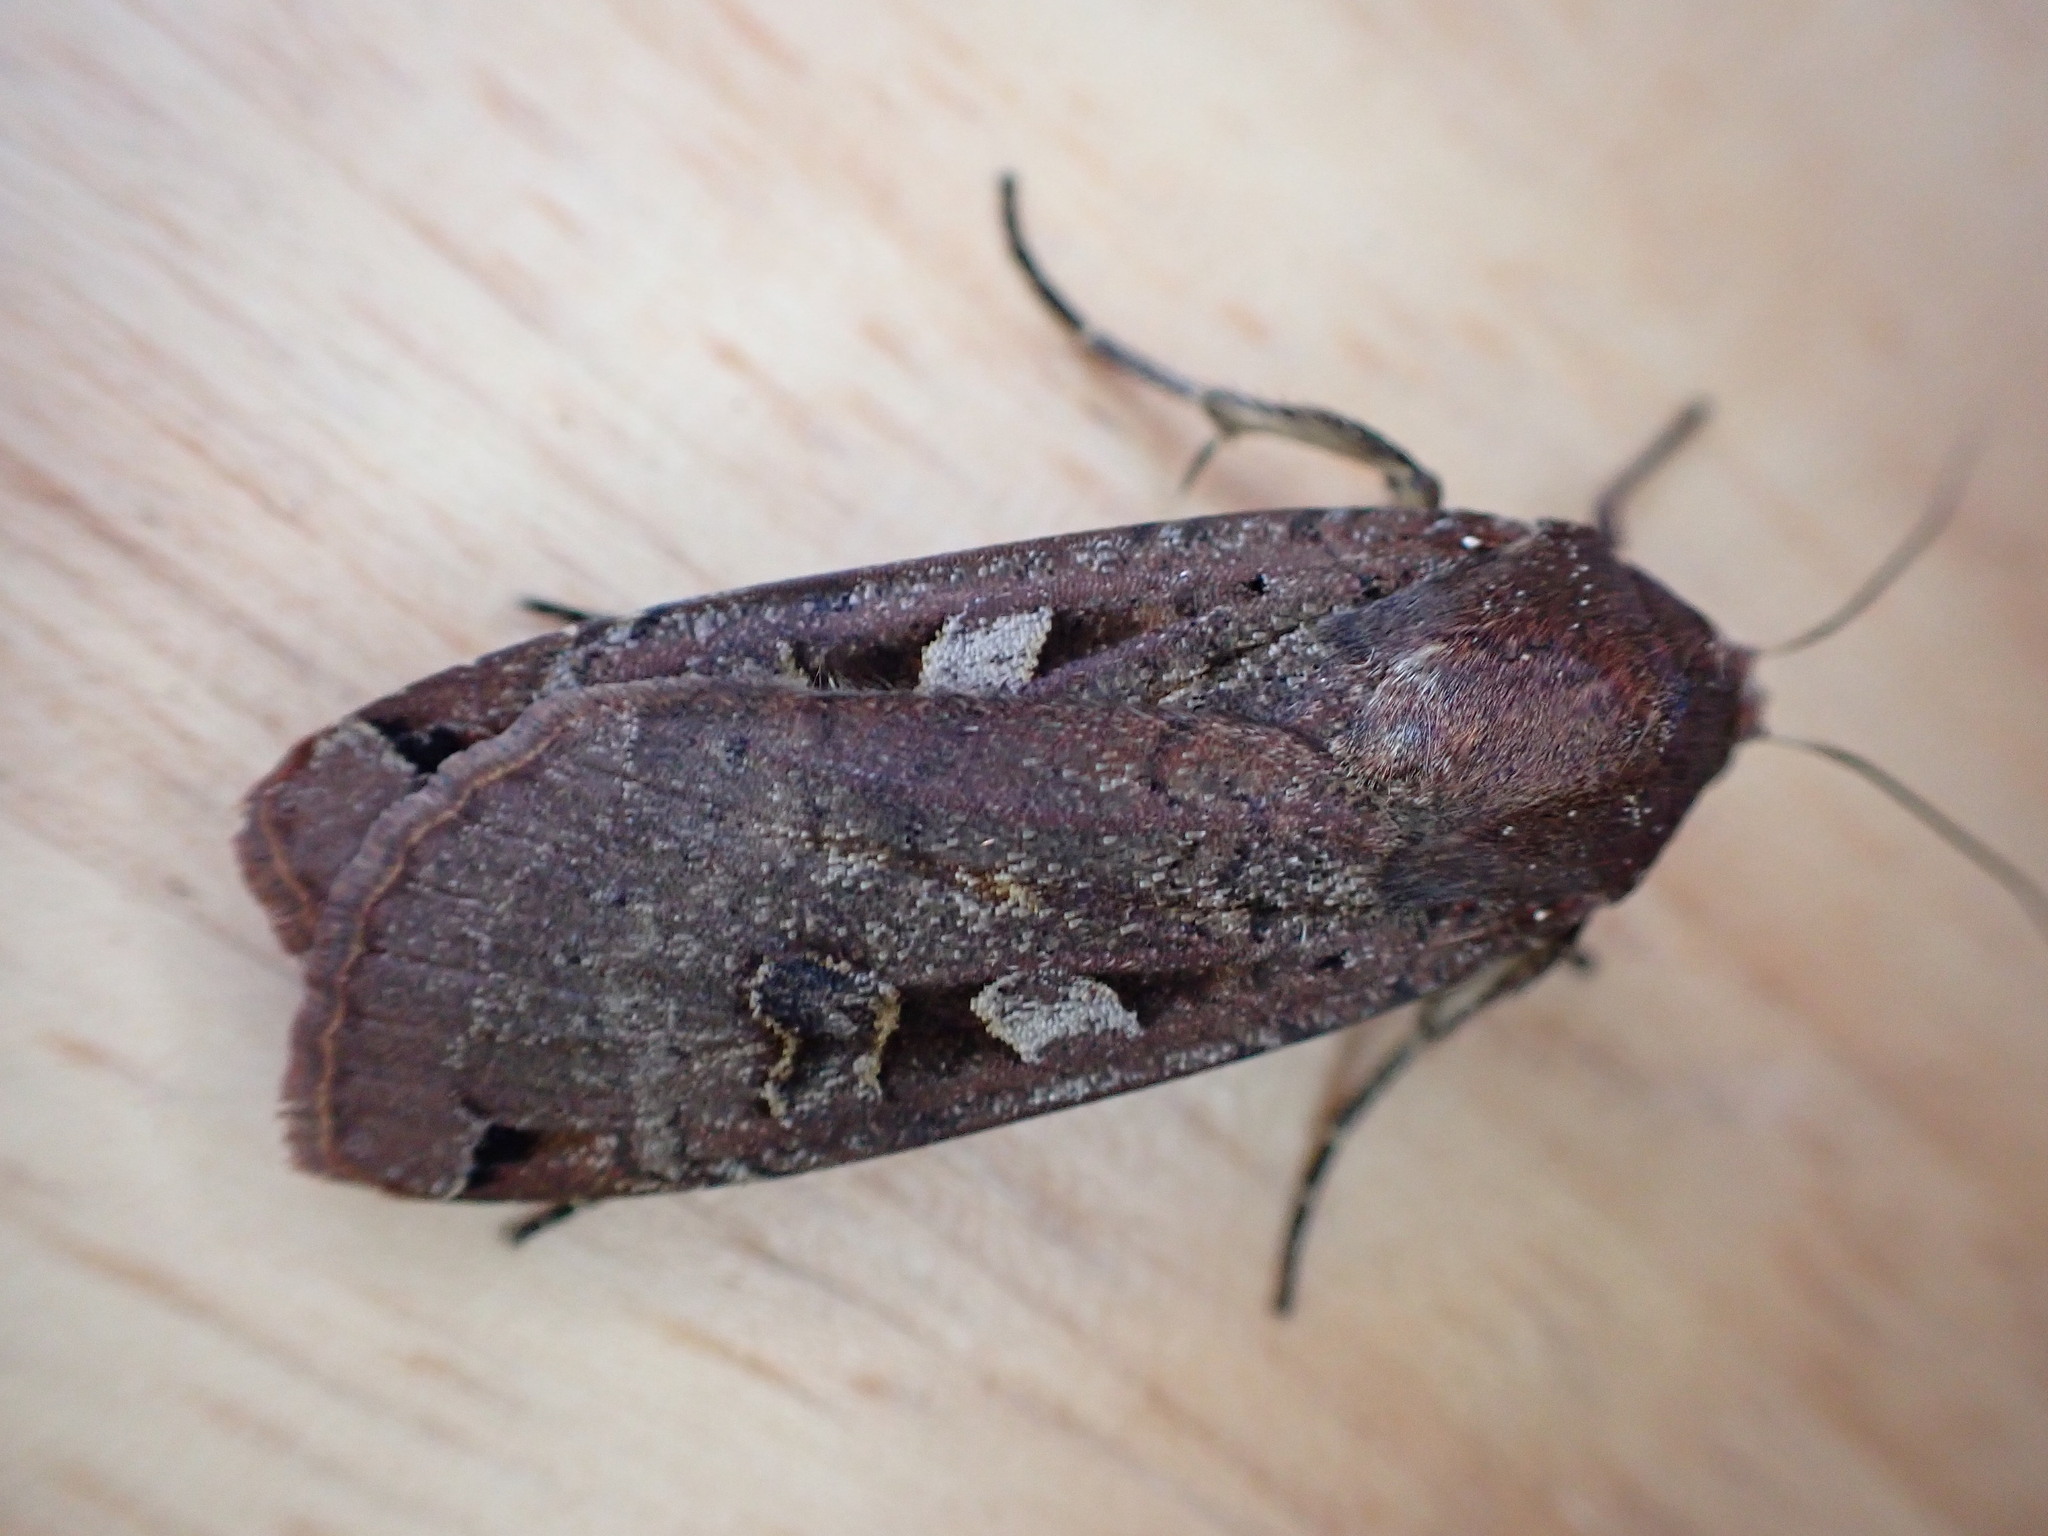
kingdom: Animalia
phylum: Arthropoda
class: Insecta
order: Lepidoptera
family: Noctuidae
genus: Noctua
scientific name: Noctua pronuba
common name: Large yellow underwing
